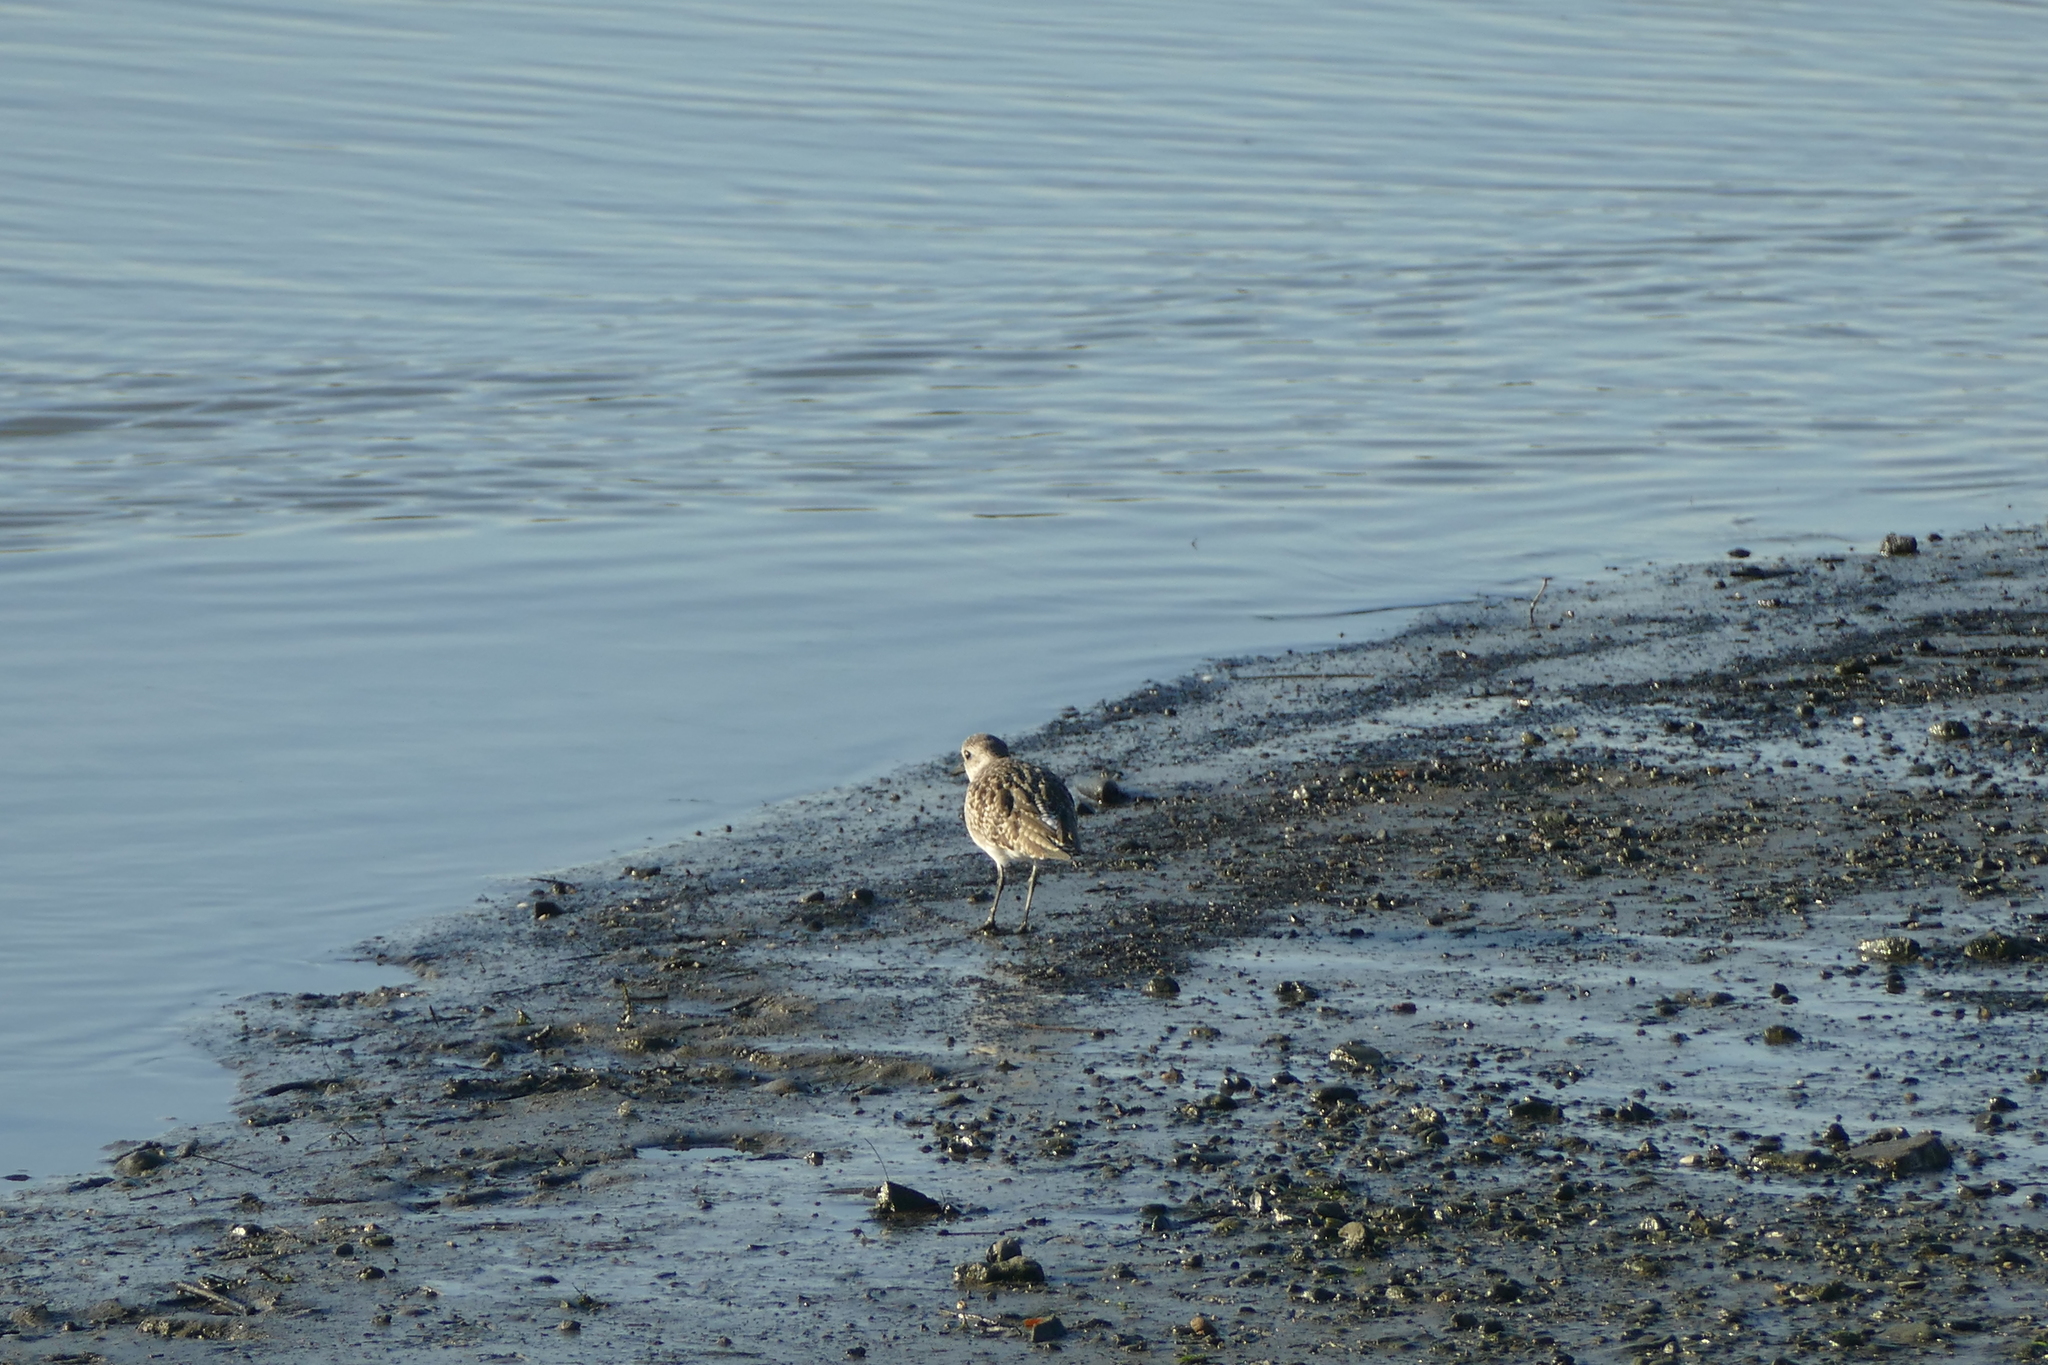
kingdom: Animalia
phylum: Chordata
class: Aves
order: Charadriiformes
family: Charadriidae
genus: Pluvialis
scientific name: Pluvialis squatarola
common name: Grey plover
